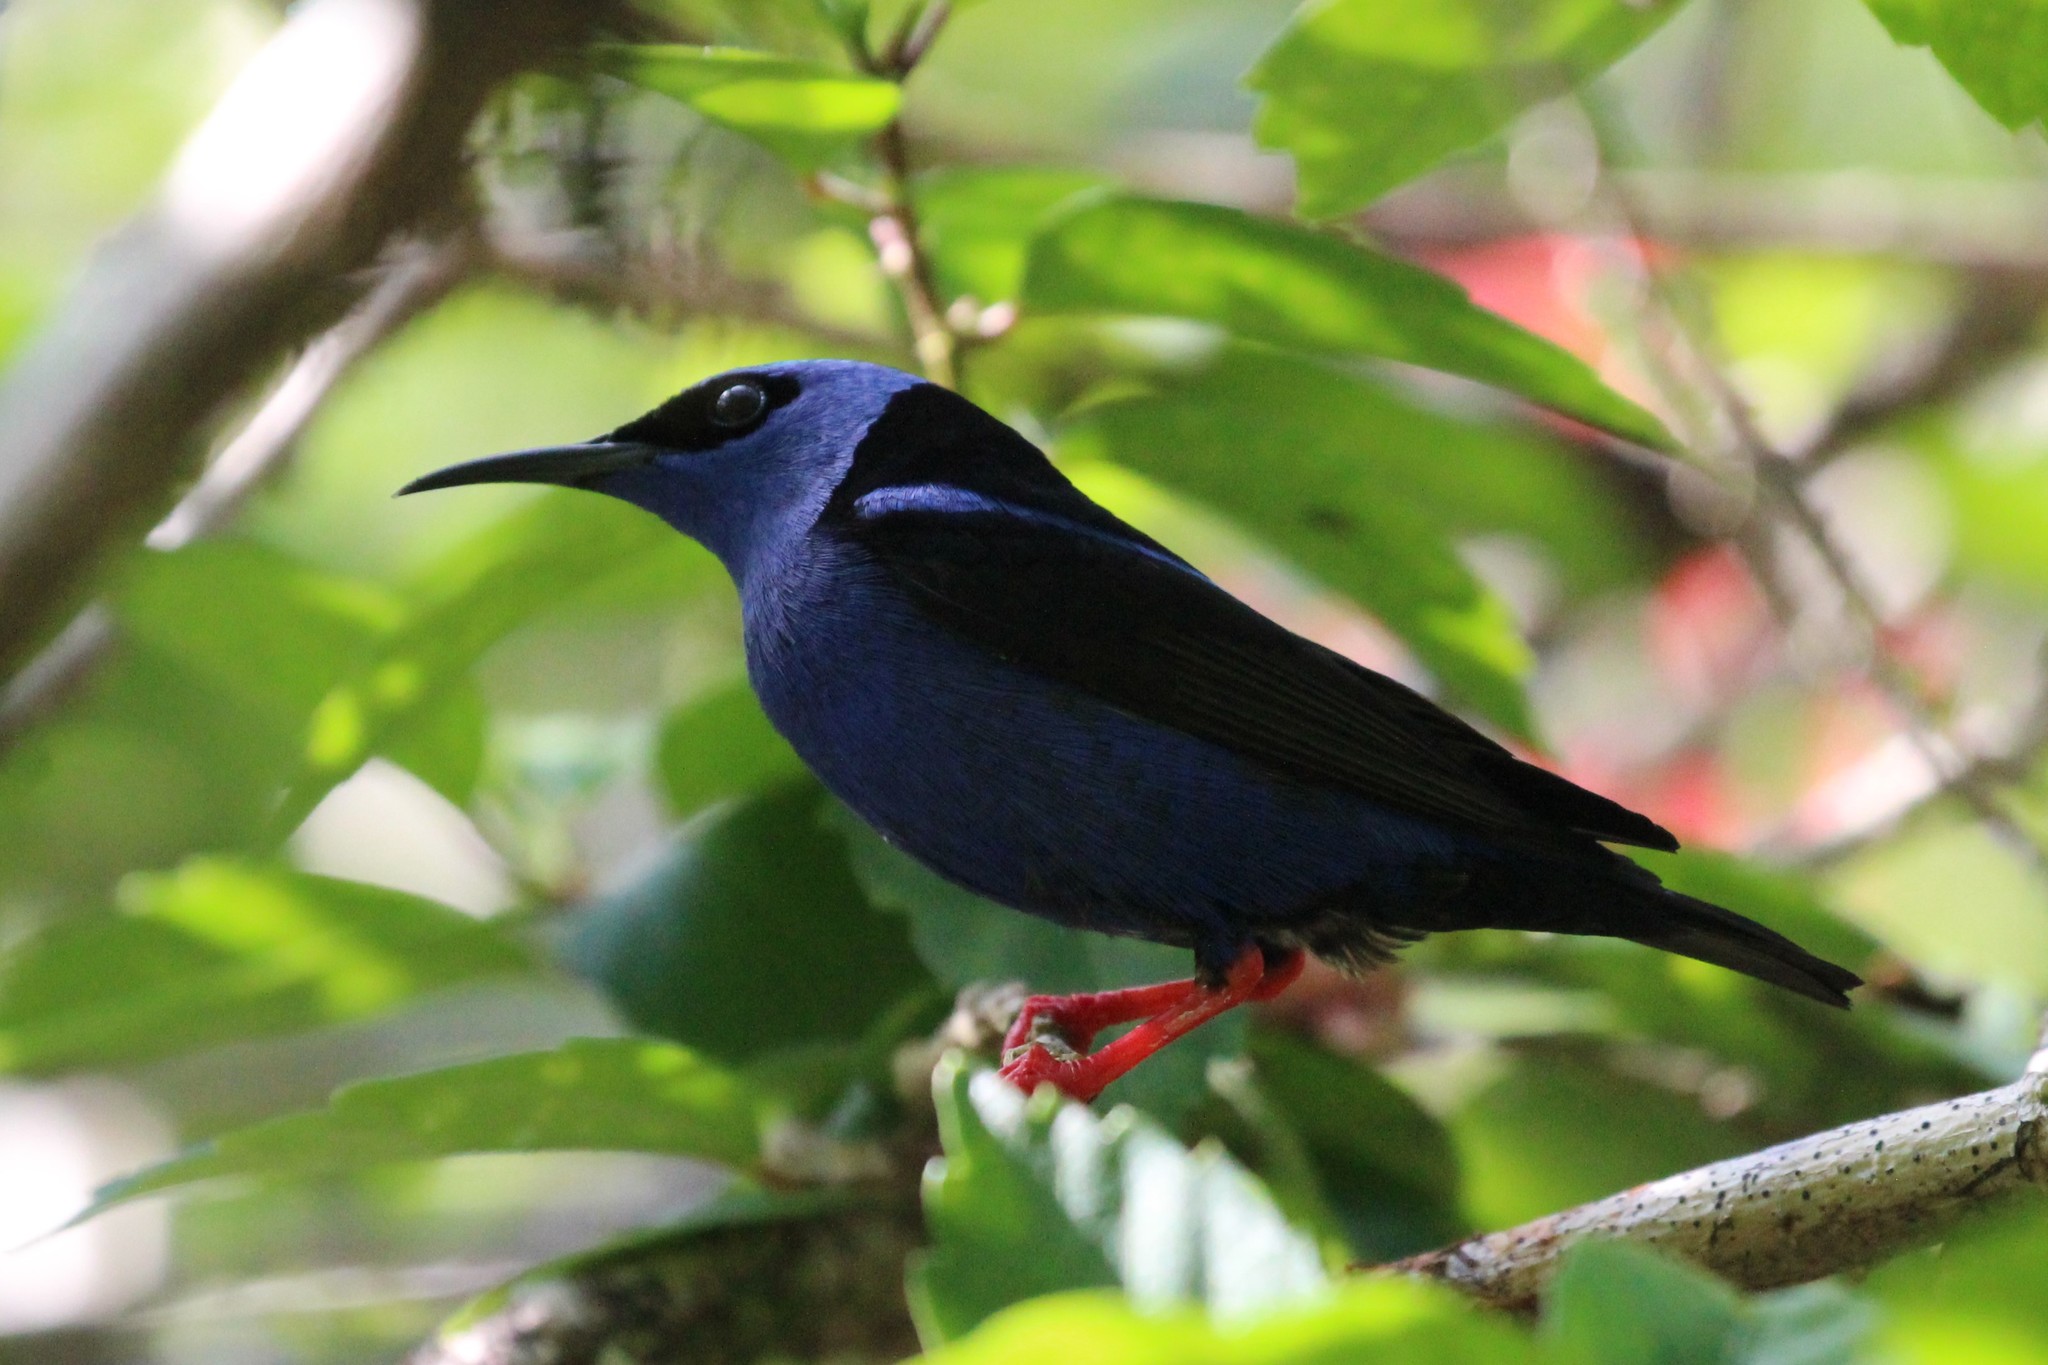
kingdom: Animalia
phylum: Chordata
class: Aves
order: Passeriformes
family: Thraupidae
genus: Cyanerpes
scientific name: Cyanerpes cyaneus
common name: Red-legged honeycreeper
